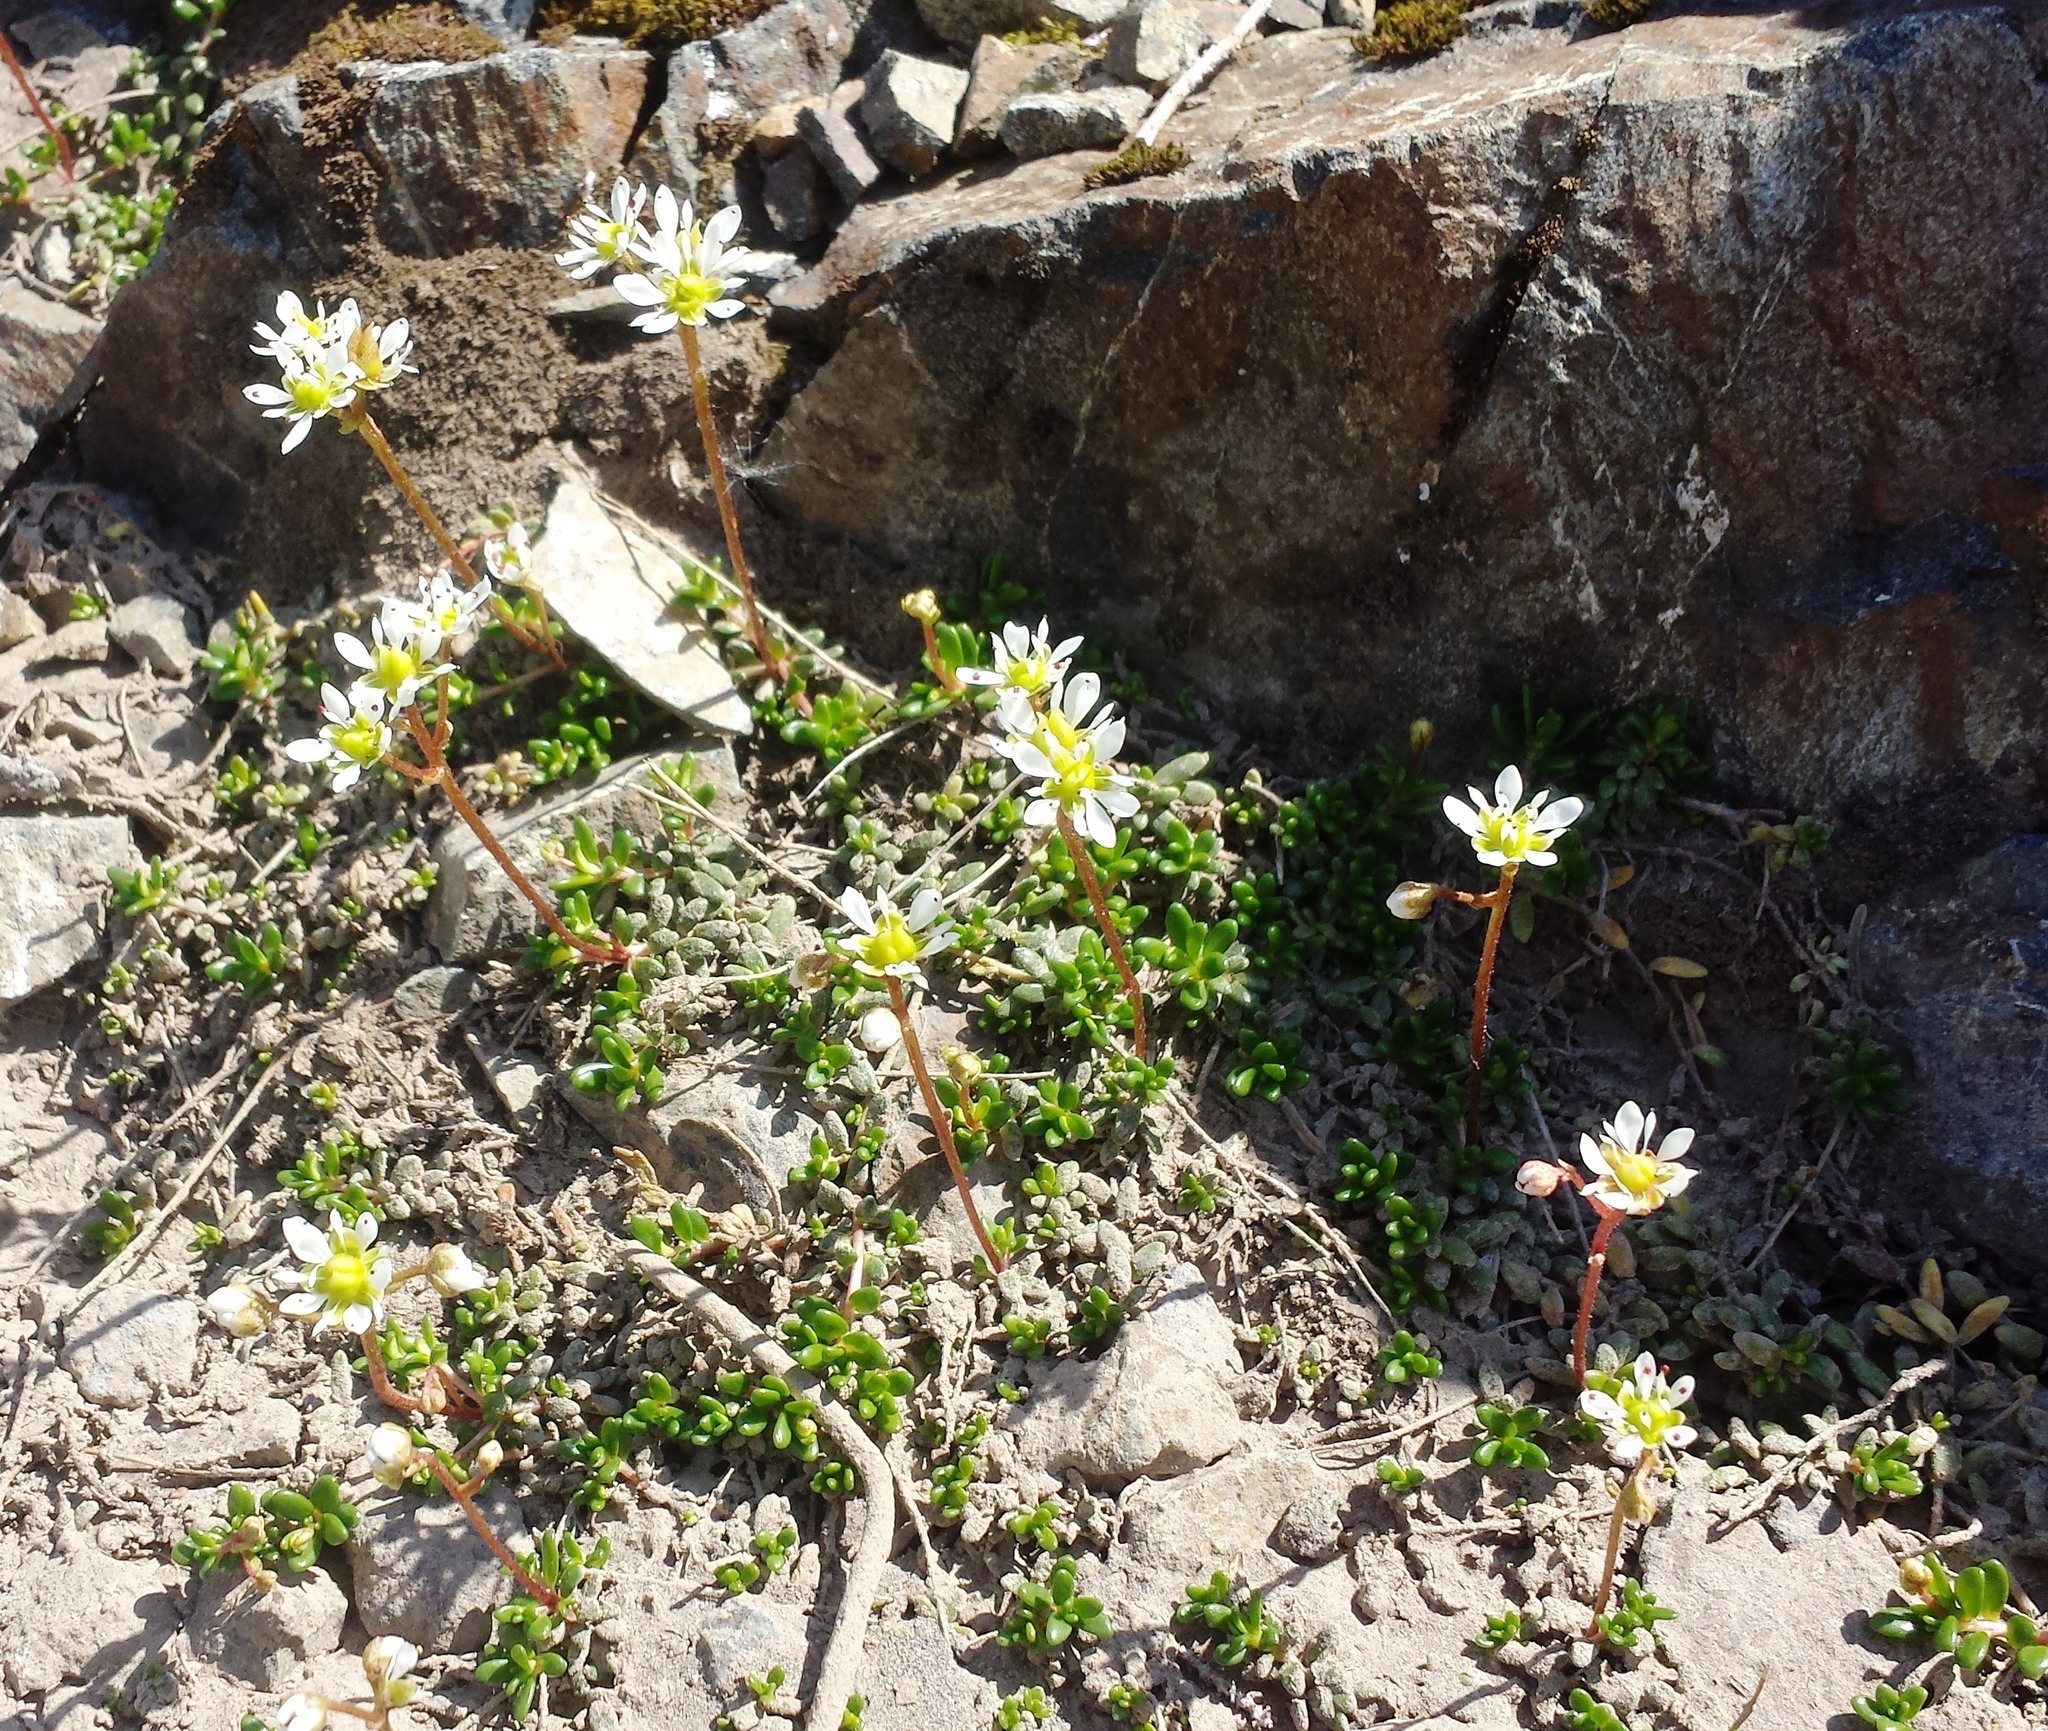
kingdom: Plantae
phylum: Tracheophyta
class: Magnoliopsida
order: Saxifragales
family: Saxifragaceae
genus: Micranthes
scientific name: Micranthes tolmiei
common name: Tolmie's saxifrage
